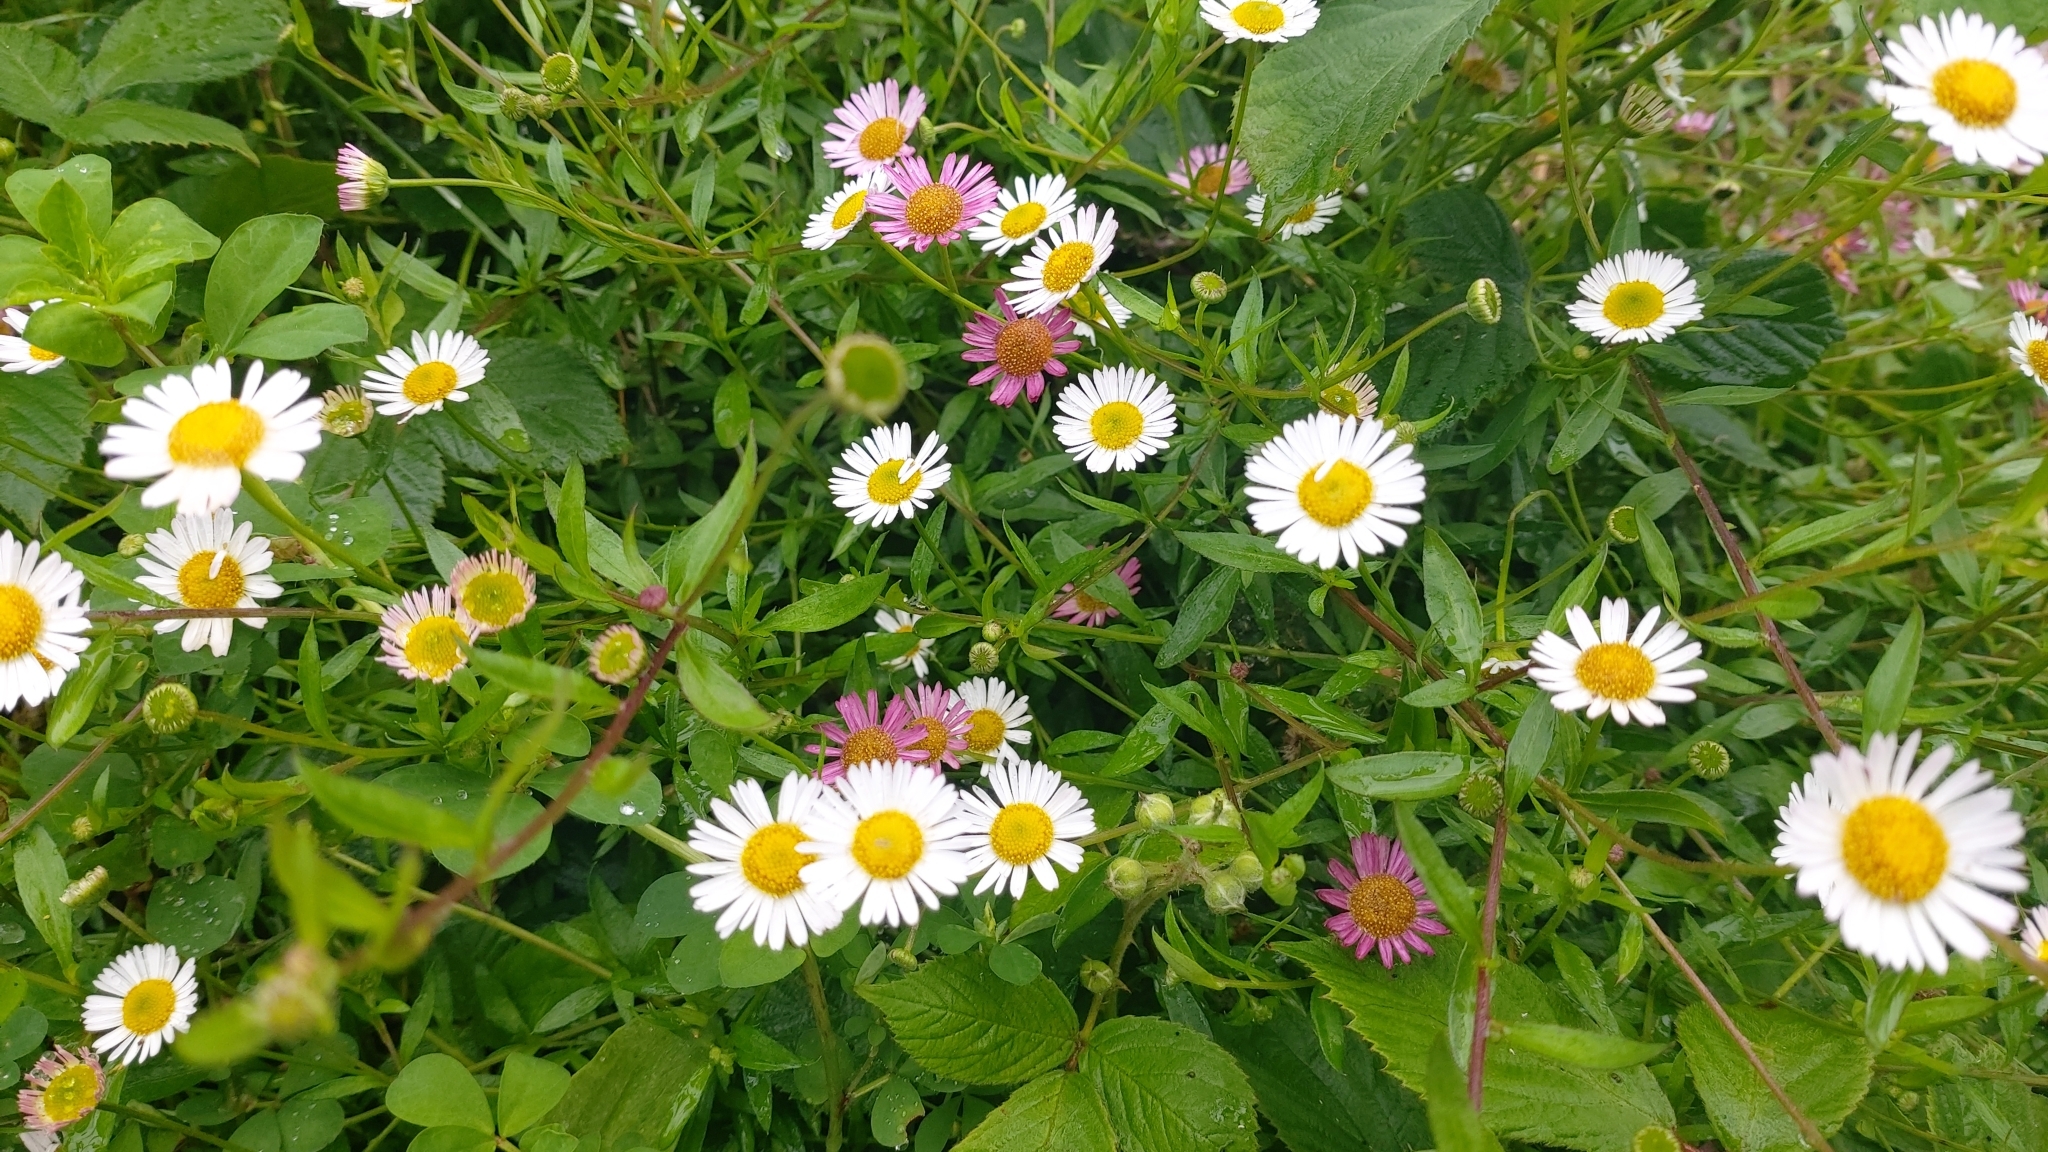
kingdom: Plantae
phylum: Tracheophyta
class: Magnoliopsida
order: Asterales
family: Asteraceae
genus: Erigeron
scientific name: Erigeron karvinskianus
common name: Mexican fleabane
